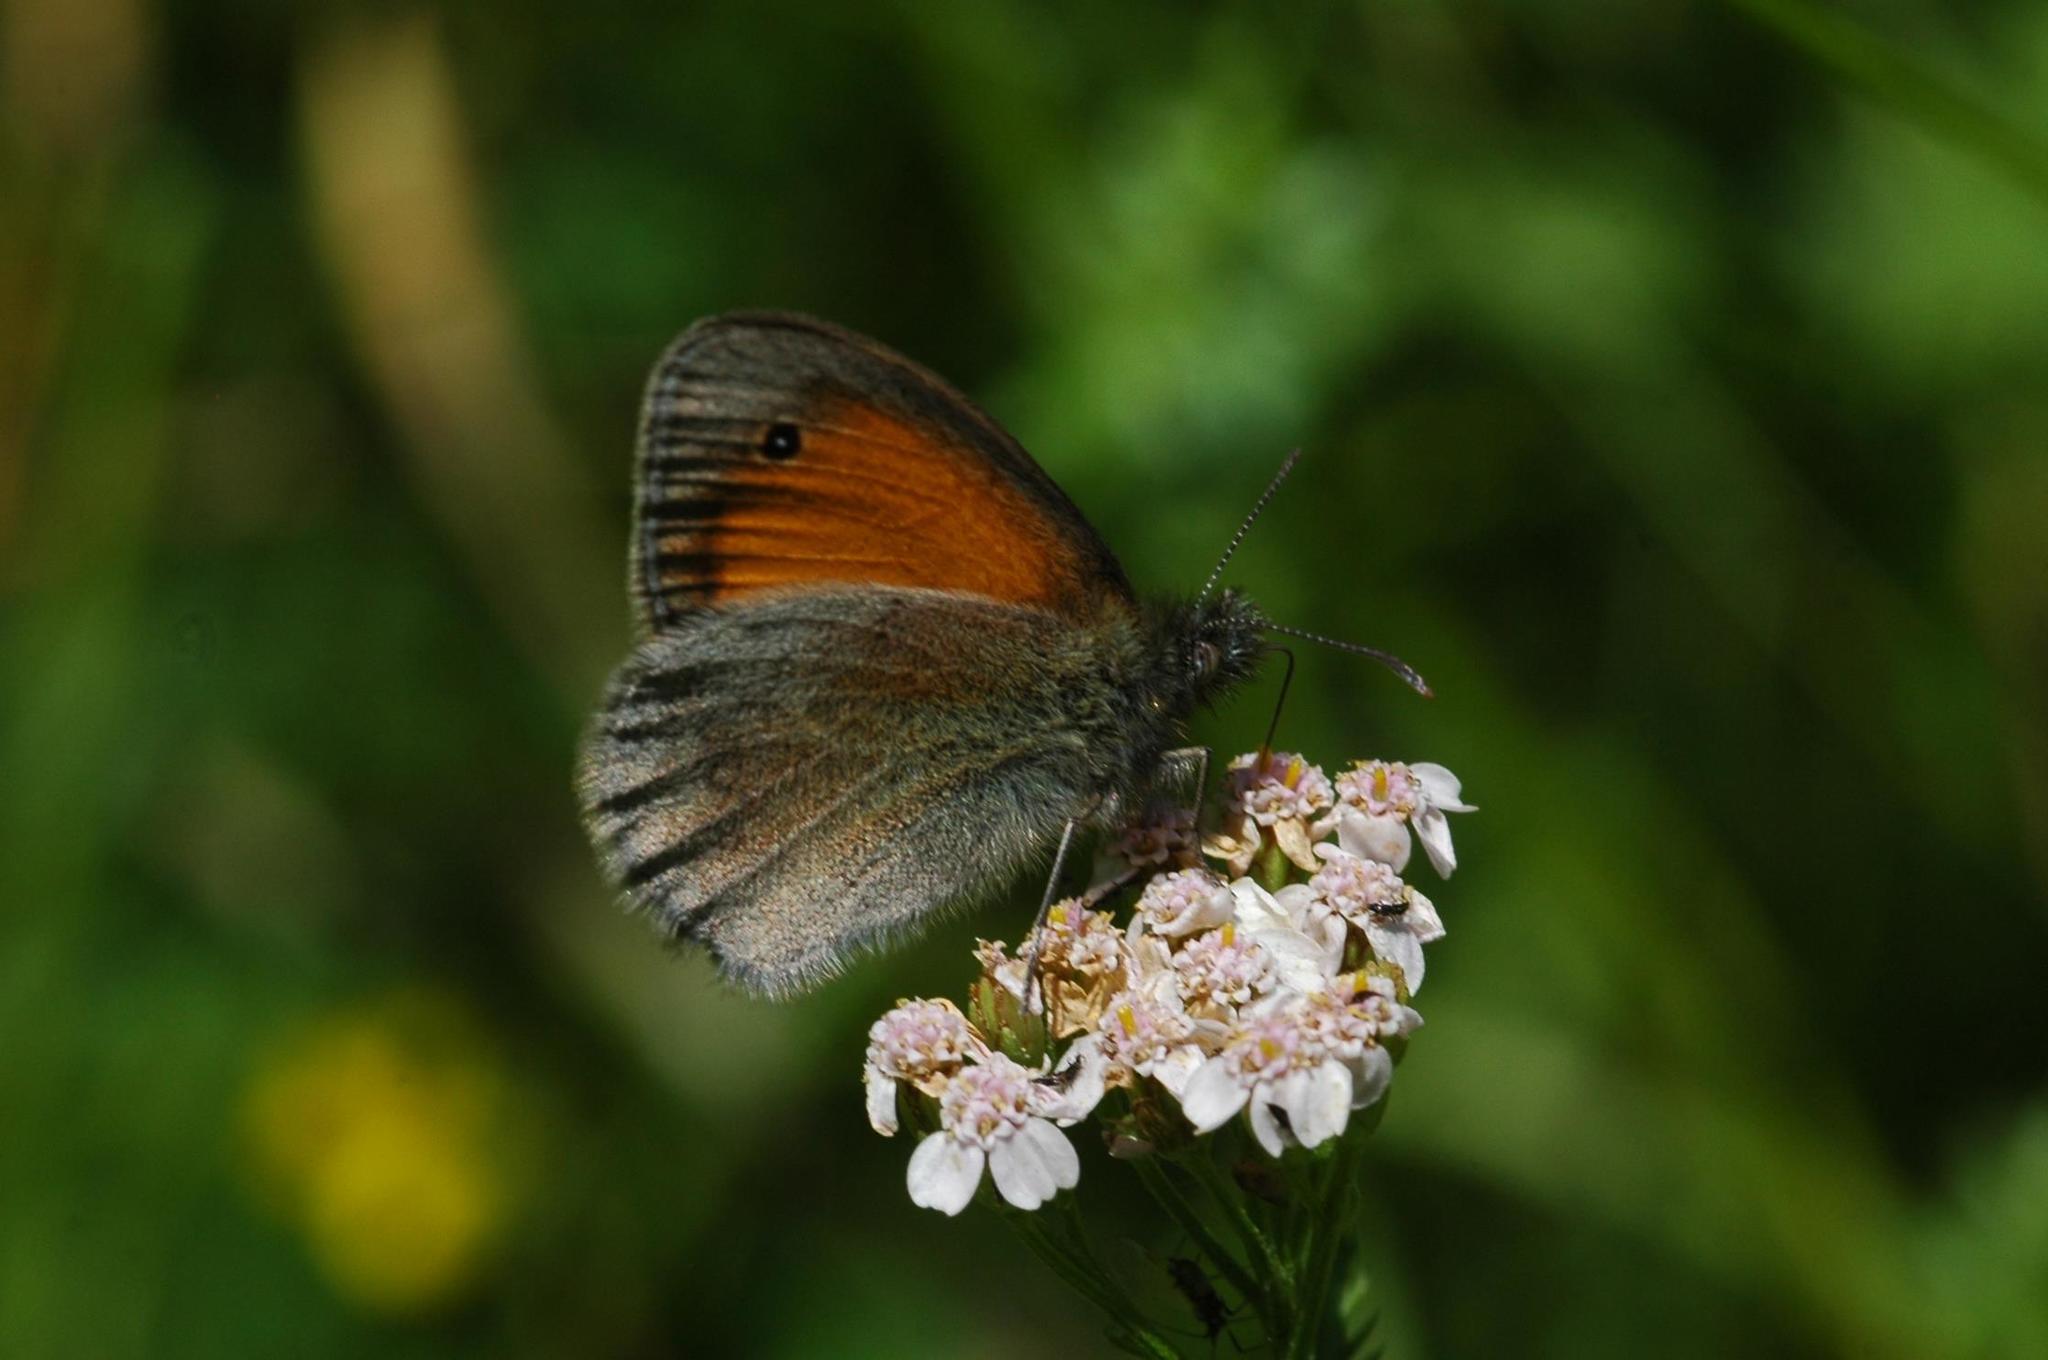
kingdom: Animalia
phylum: Arthropoda
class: Insecta
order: Lepidoptera
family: Nymphalidae
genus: Coenonympha
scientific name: Coenonympha pamphilus
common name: Small heath
